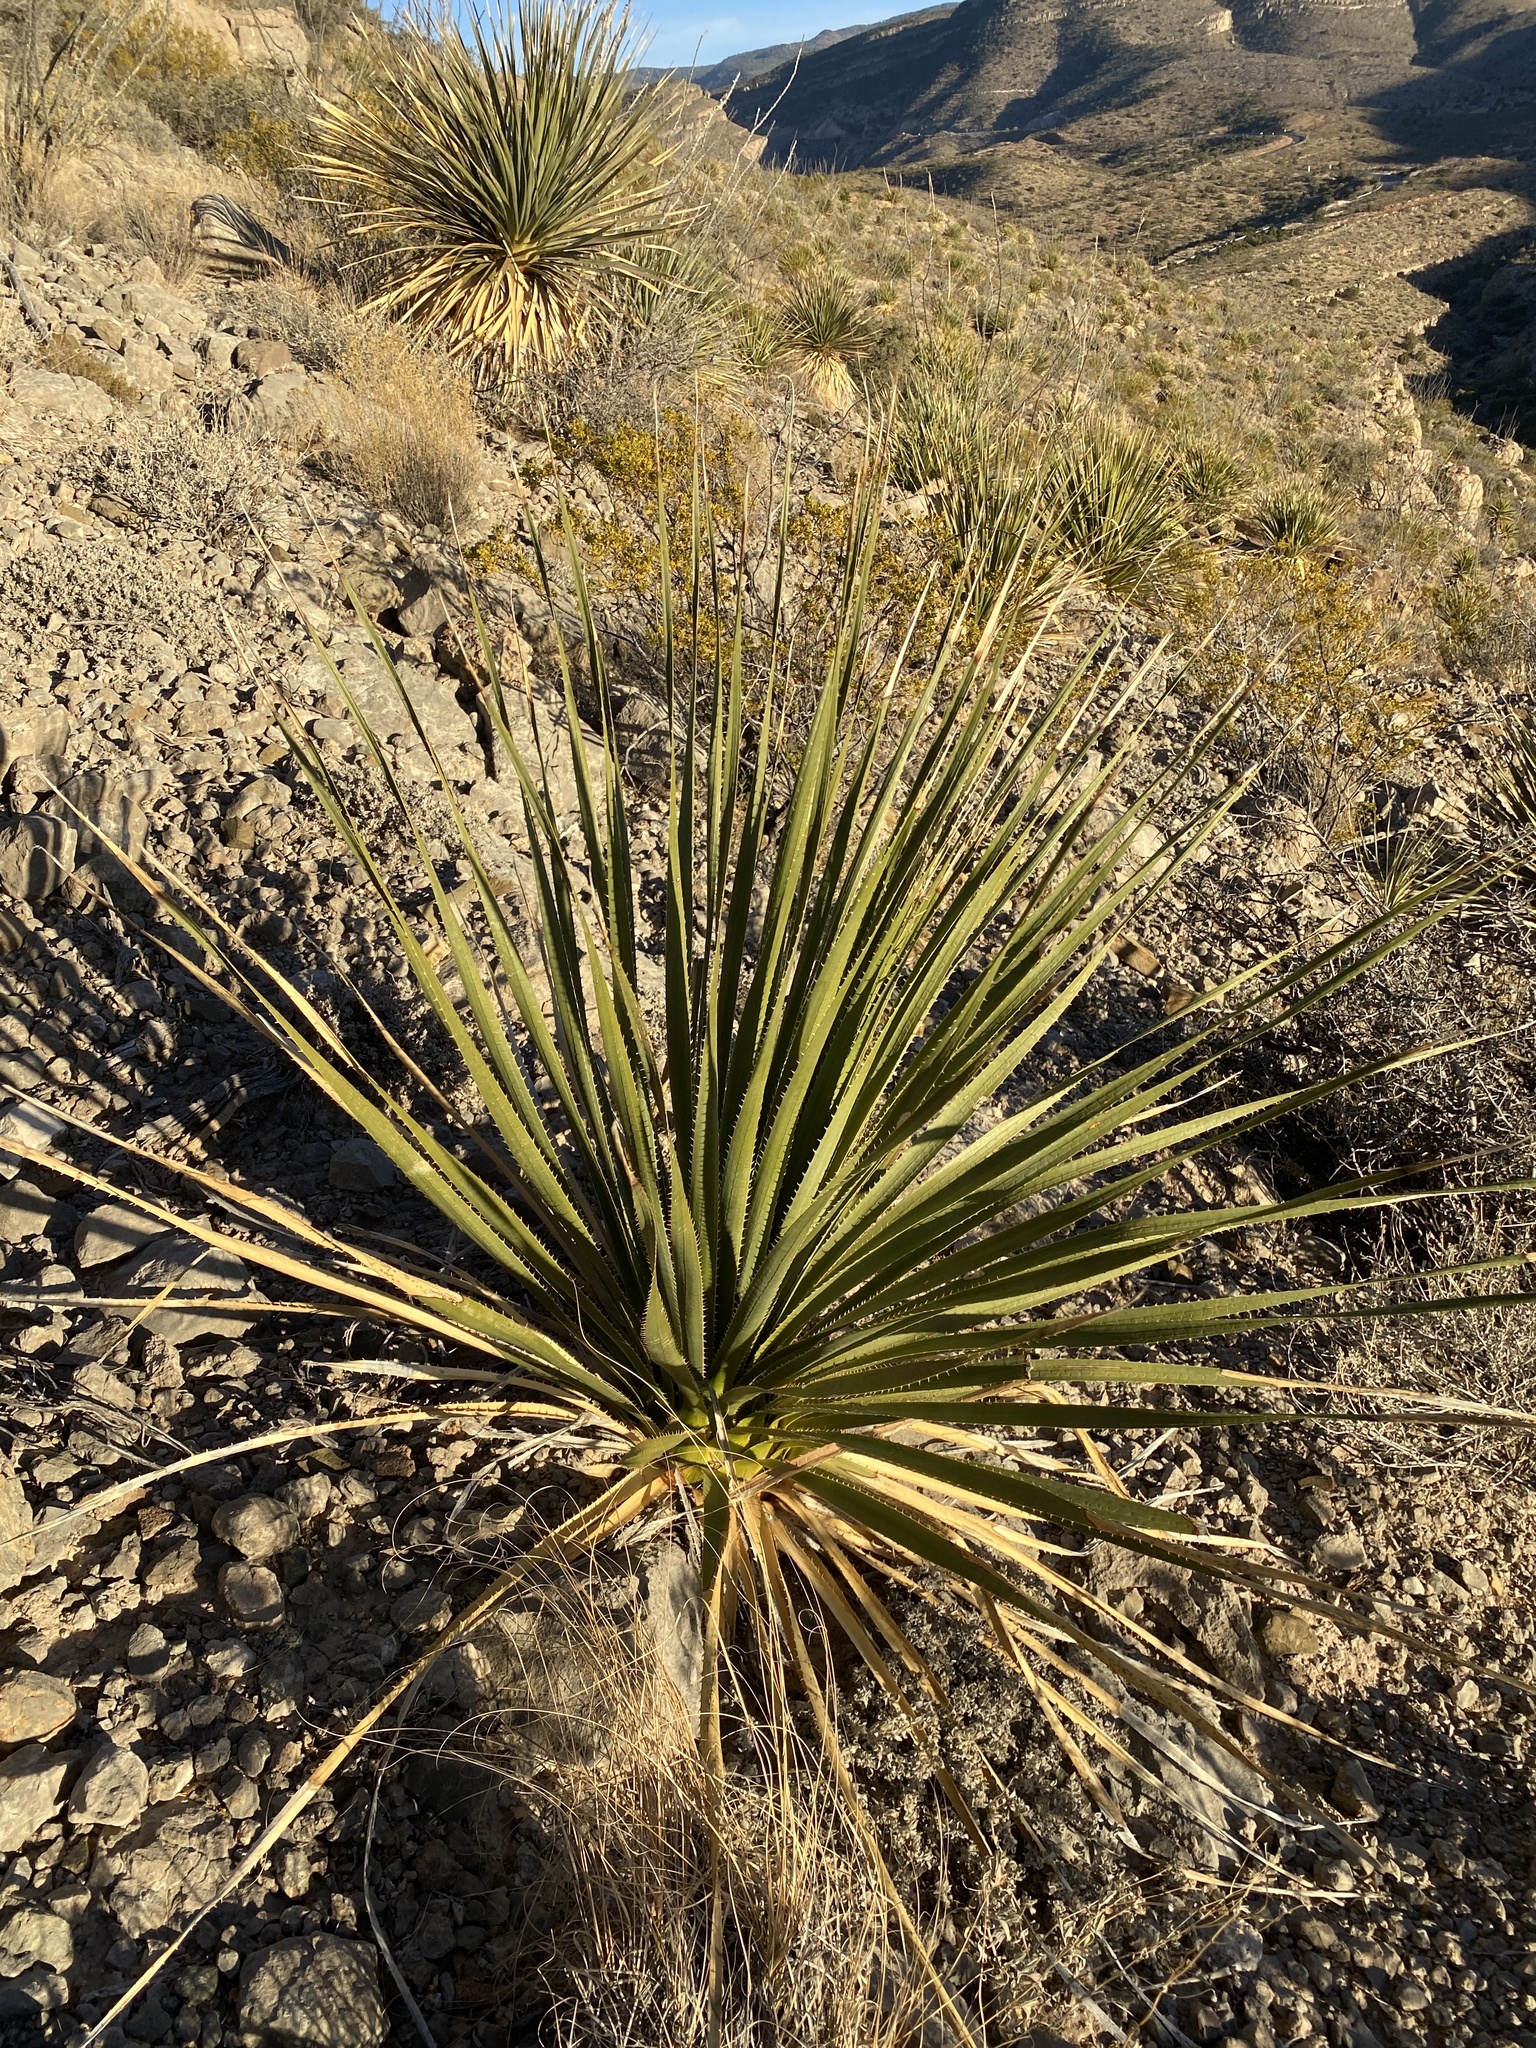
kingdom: Plantae
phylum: Tracheophyta
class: Liliopsida
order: Asparagales
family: Asparagaceae
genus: Dasylirion
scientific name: Dasylirion wheeleri
